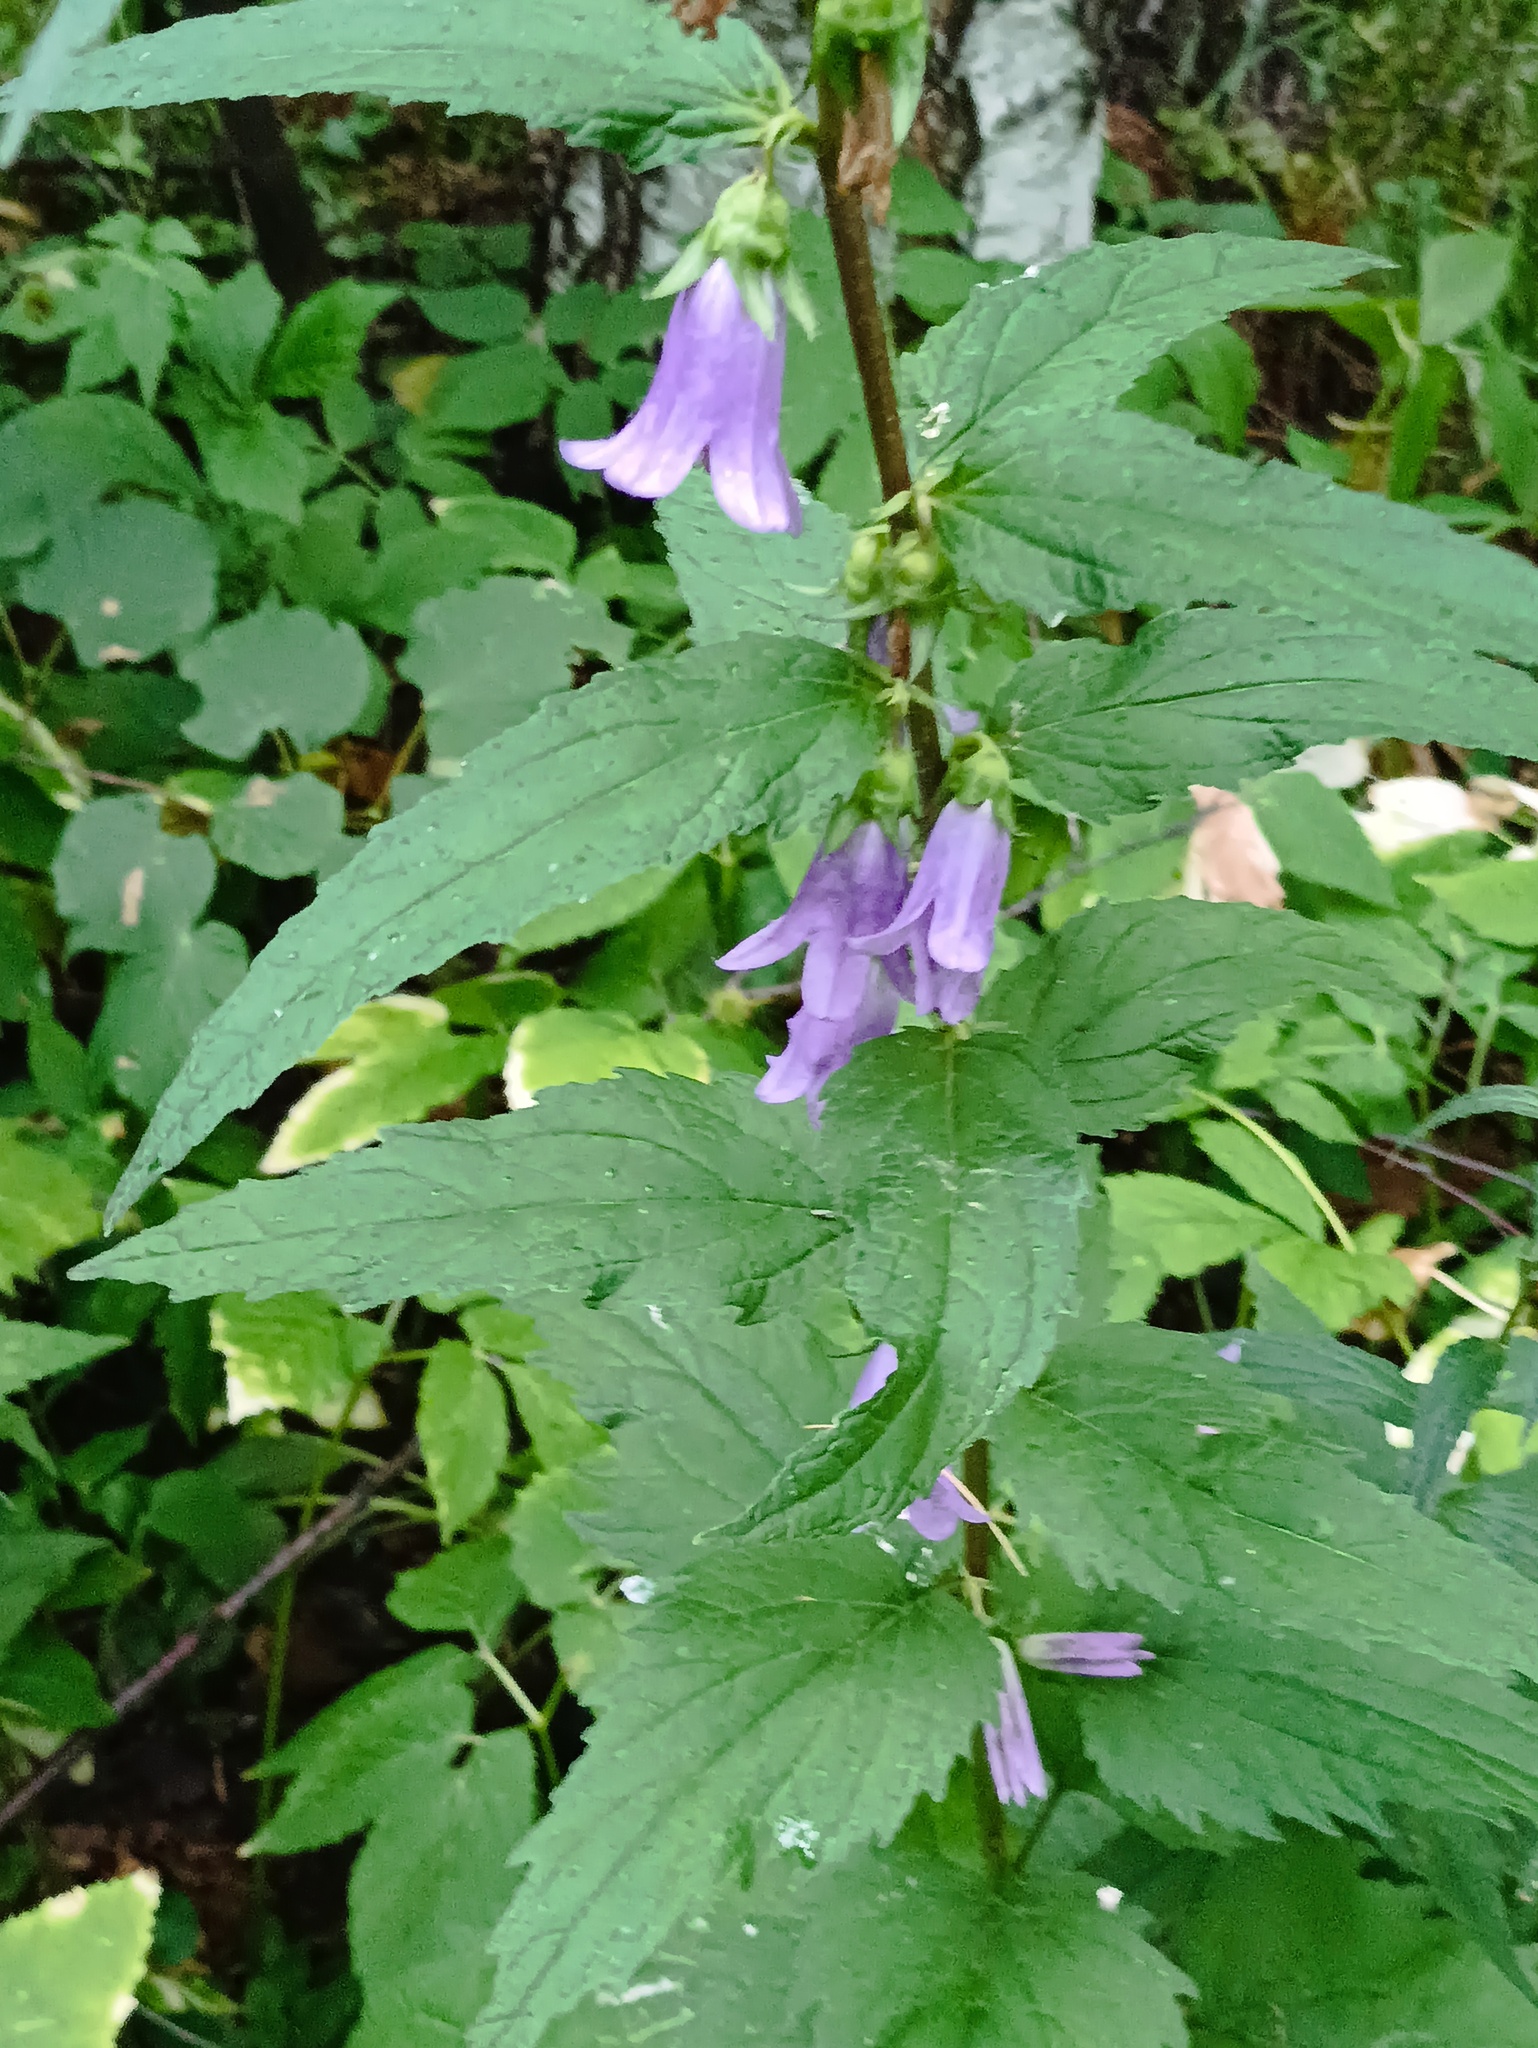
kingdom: Plantae
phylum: Tracheophyta
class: Magnoliopsida
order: Asterales
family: Campanulaceae
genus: Campanula
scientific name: Campanula trachelium
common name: Nettle-leaved bellflower
